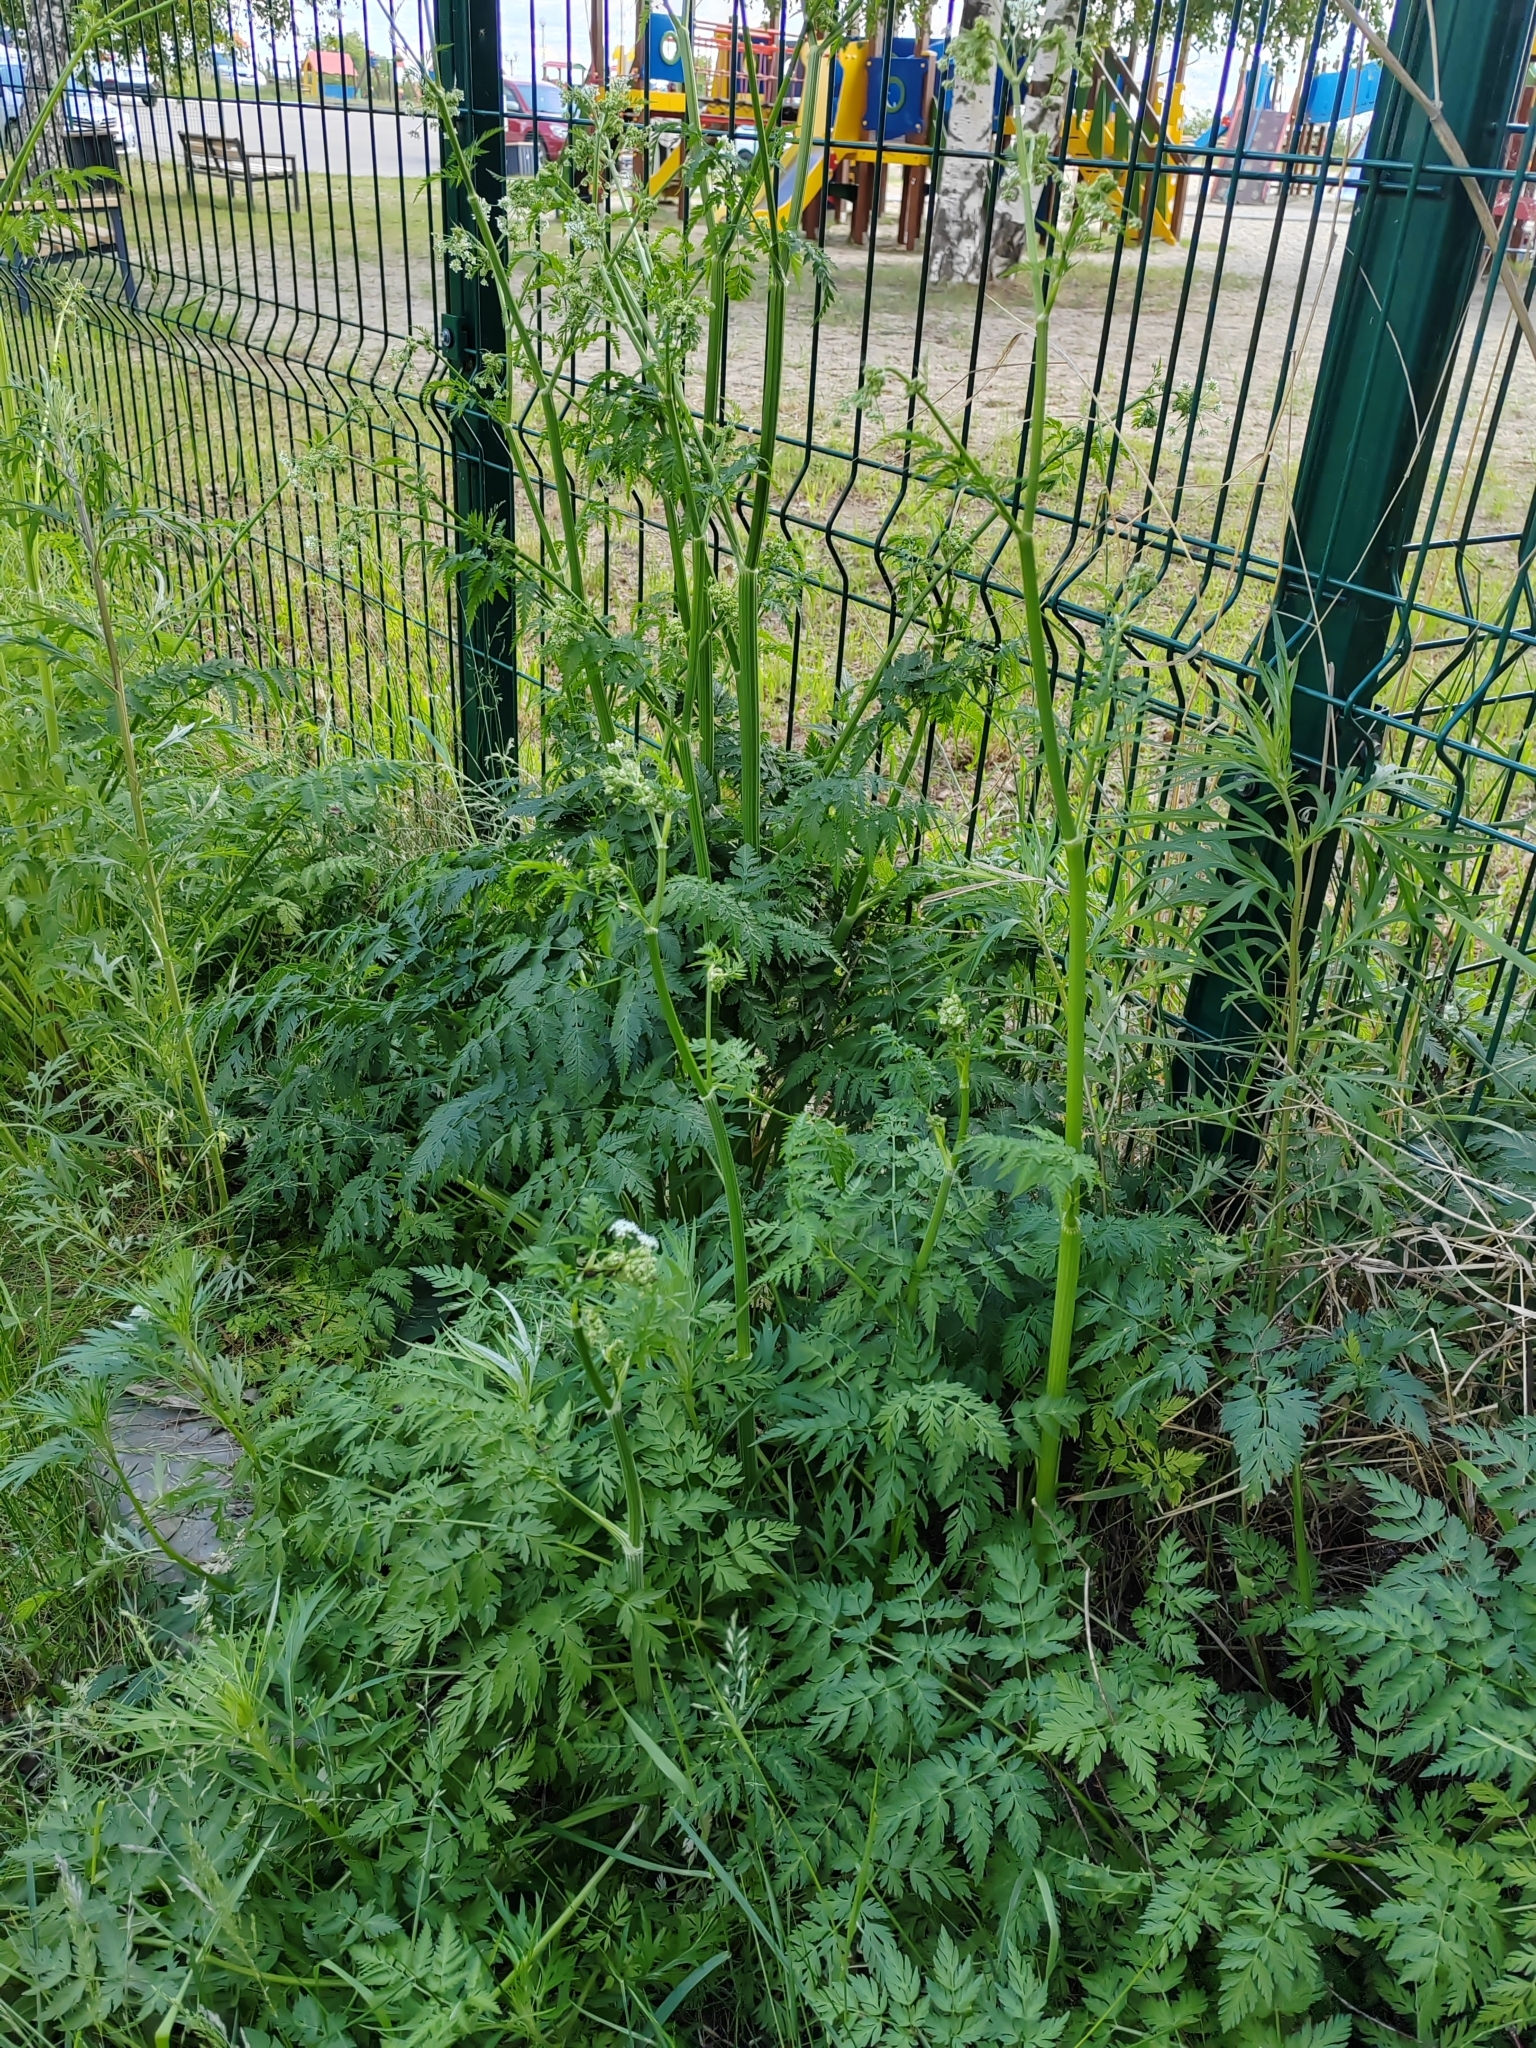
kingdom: Plantae
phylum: Tracheophyta
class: Magnoliopsida
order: Apiales
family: Apiaceae
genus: Anthriscus
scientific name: Anthriscus sylvestris
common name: Cow parsley
